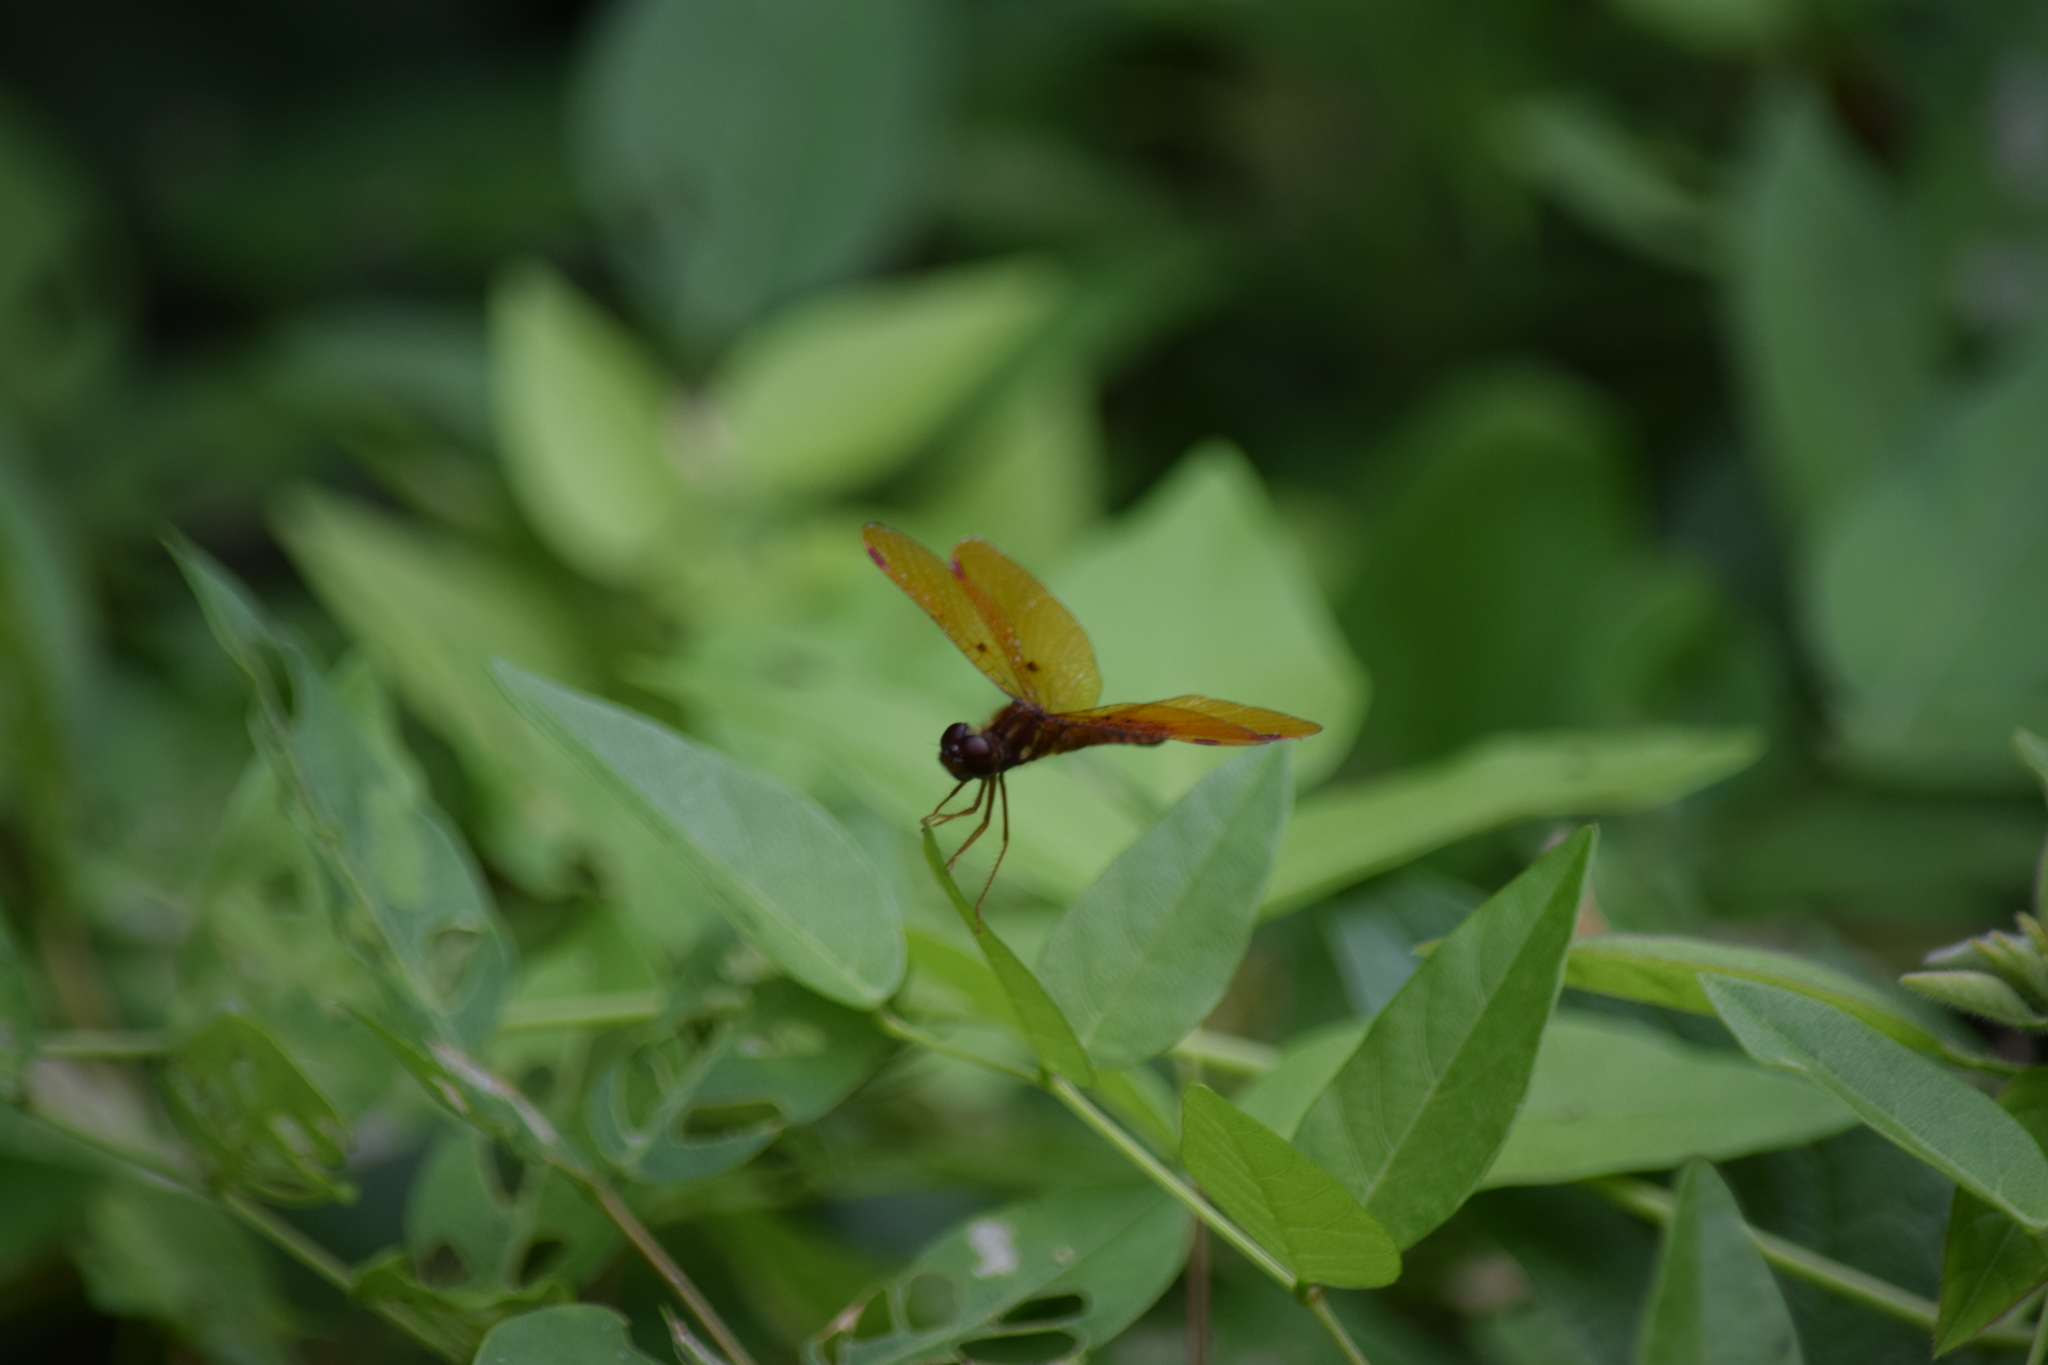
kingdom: Animalia
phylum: Arthropoda
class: Insecta
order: Odonata
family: Libellulidae
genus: Perithemis
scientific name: Perithemis tenera
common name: Eastern amberwing
